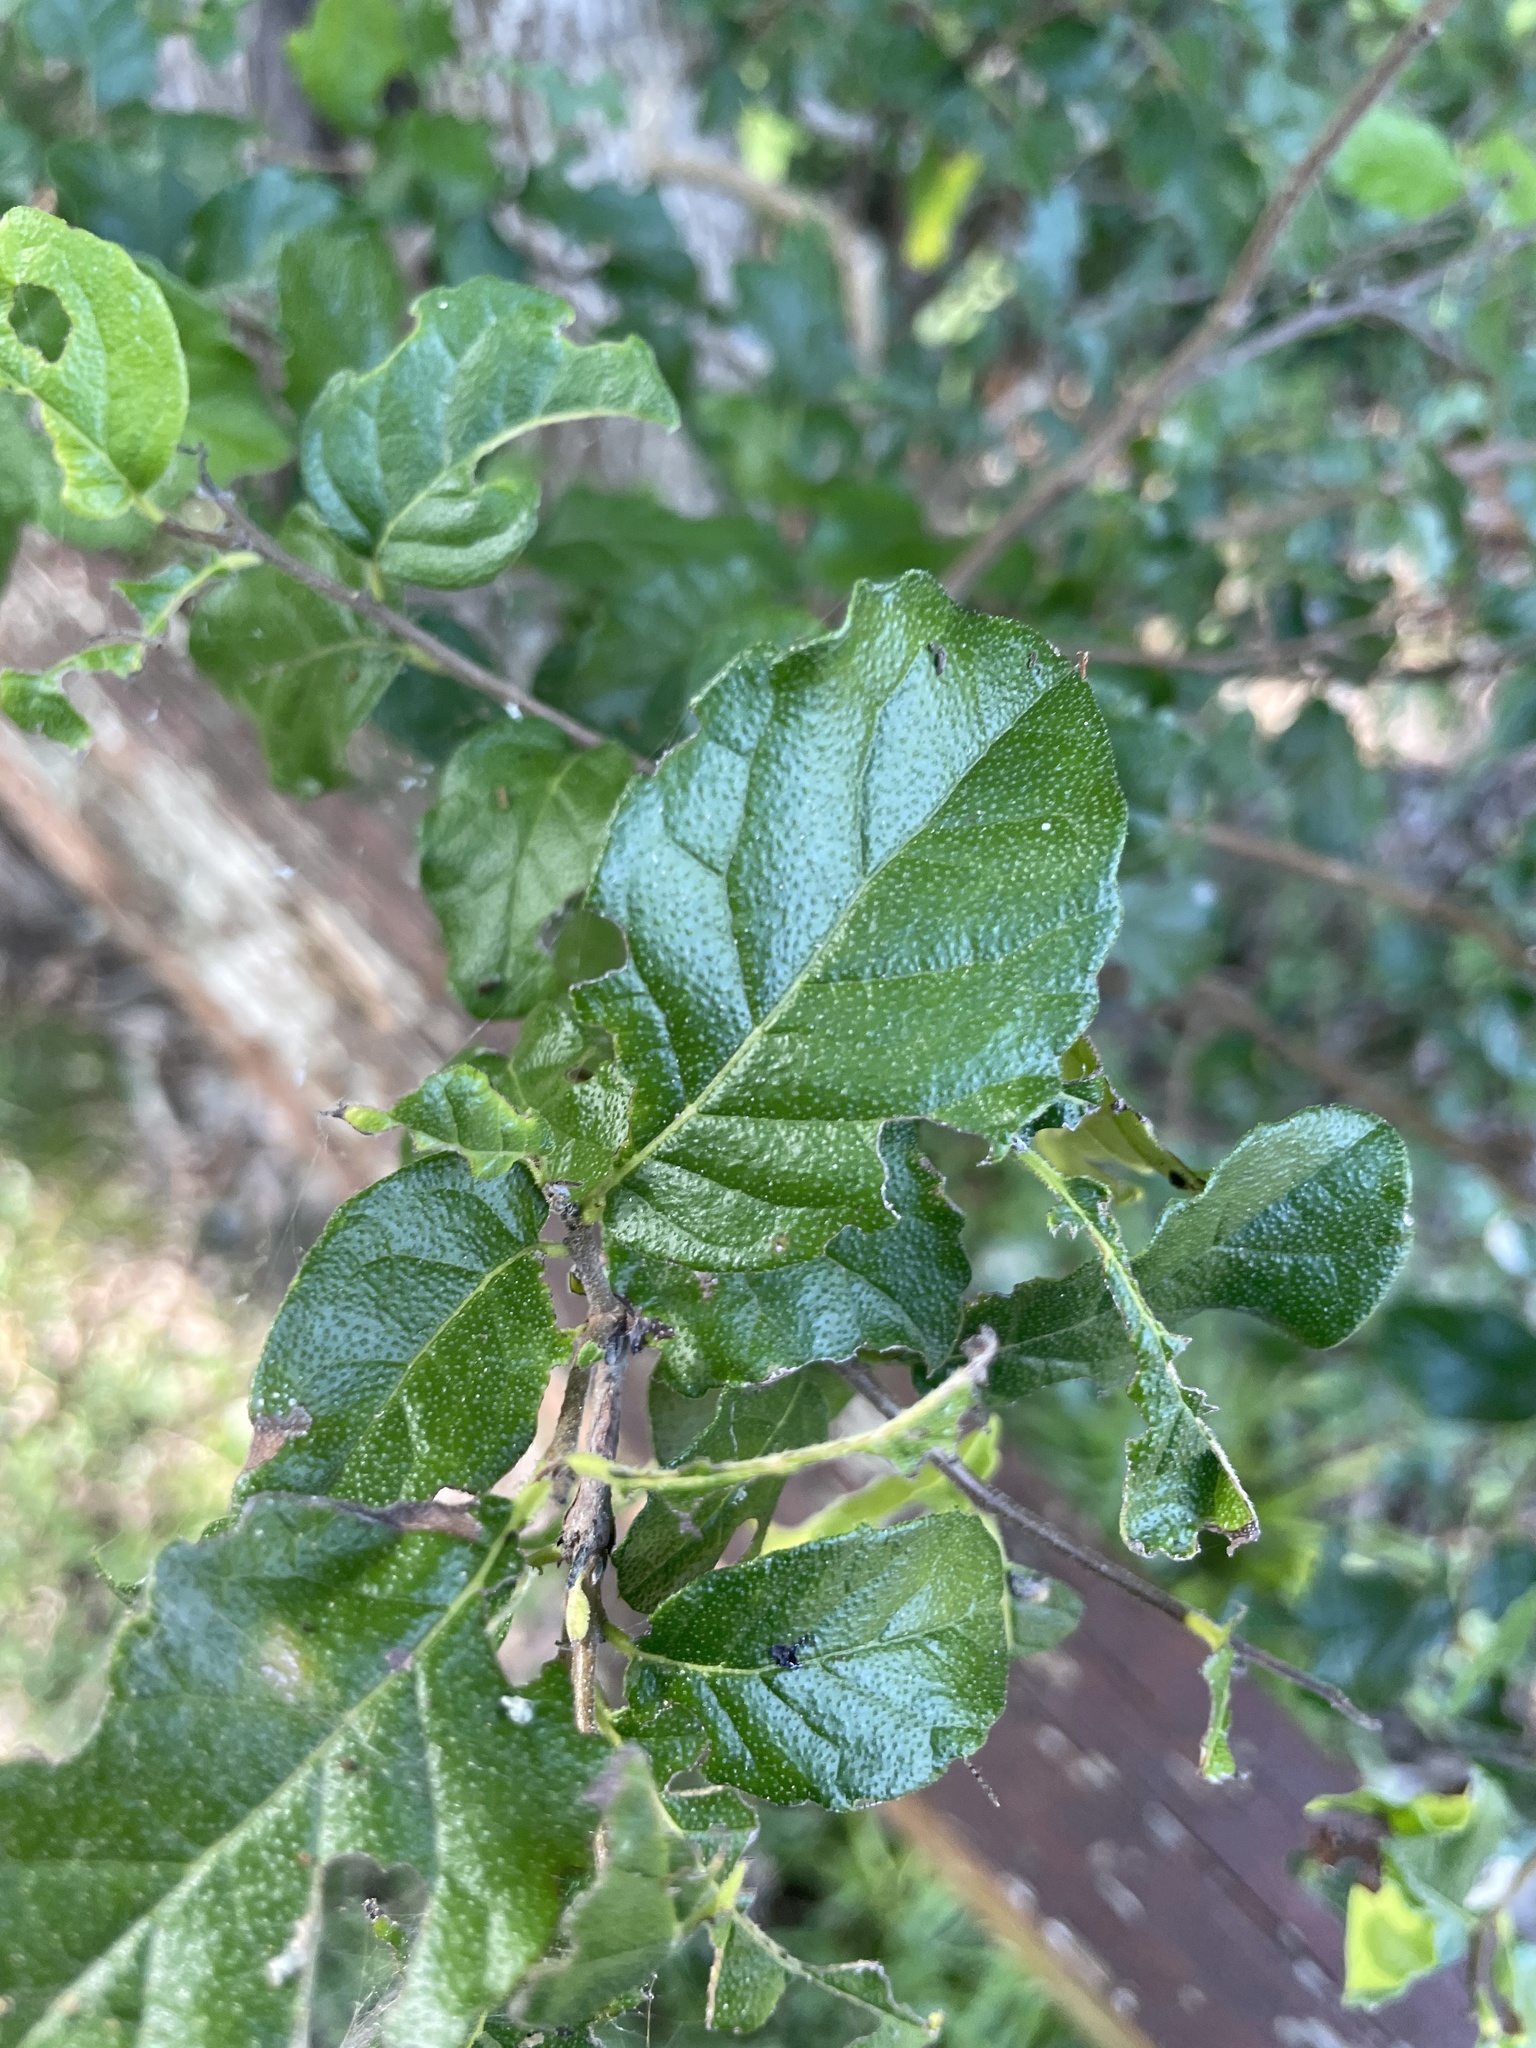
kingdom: Plantae
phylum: Tracheophyta
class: Magnoliopsida
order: Boraginales
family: Ehretiaceae
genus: Ehretia
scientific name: Ehretia anacua
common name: Sugarberry
